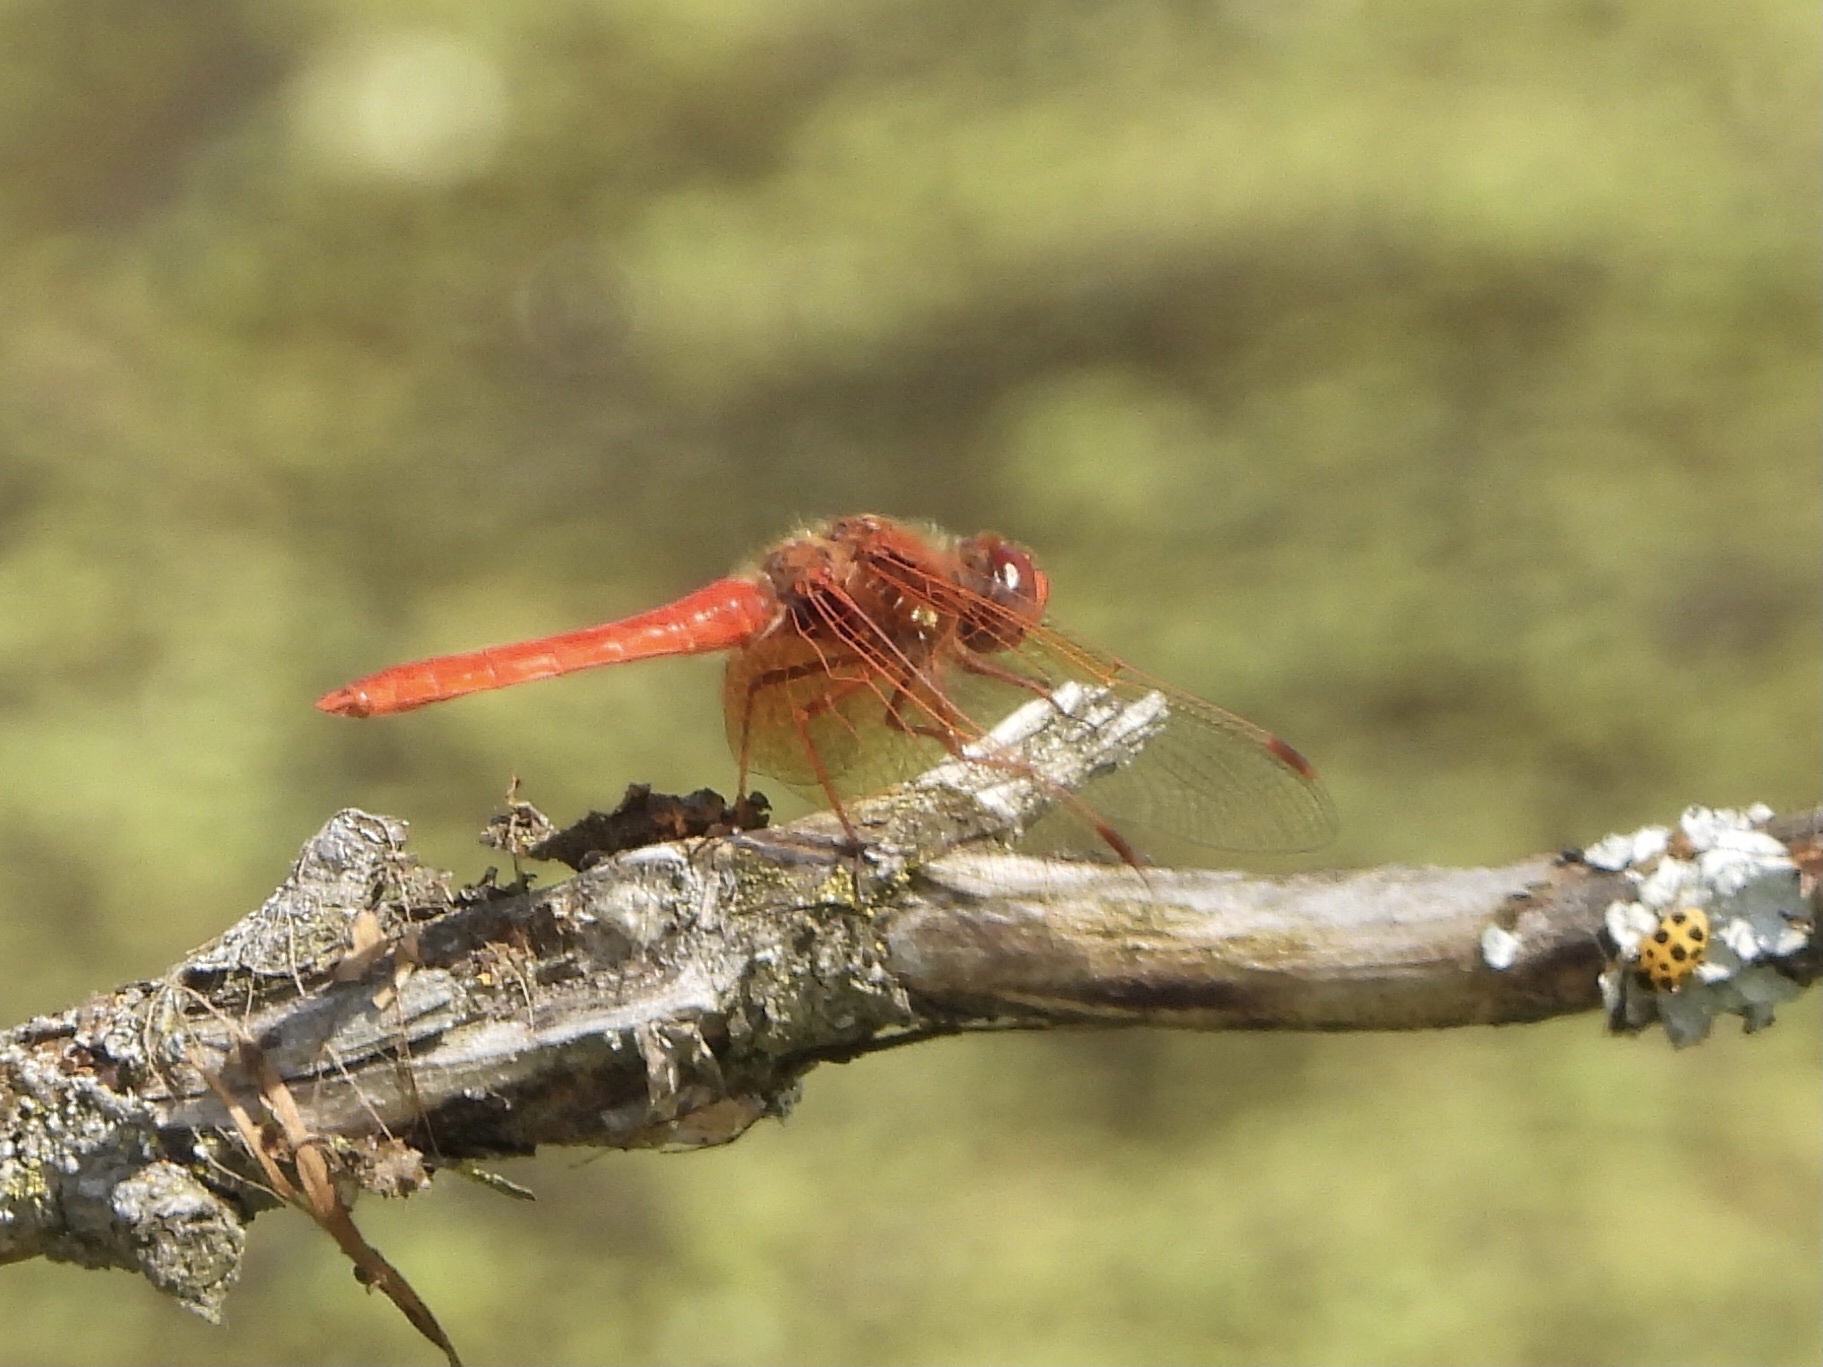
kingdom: Animalia
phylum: Arthropoda
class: Insecta
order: Odonata
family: Libellulidae
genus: Sympetrum
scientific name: Sympetrum illotum
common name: Cardinal meadowhawk
